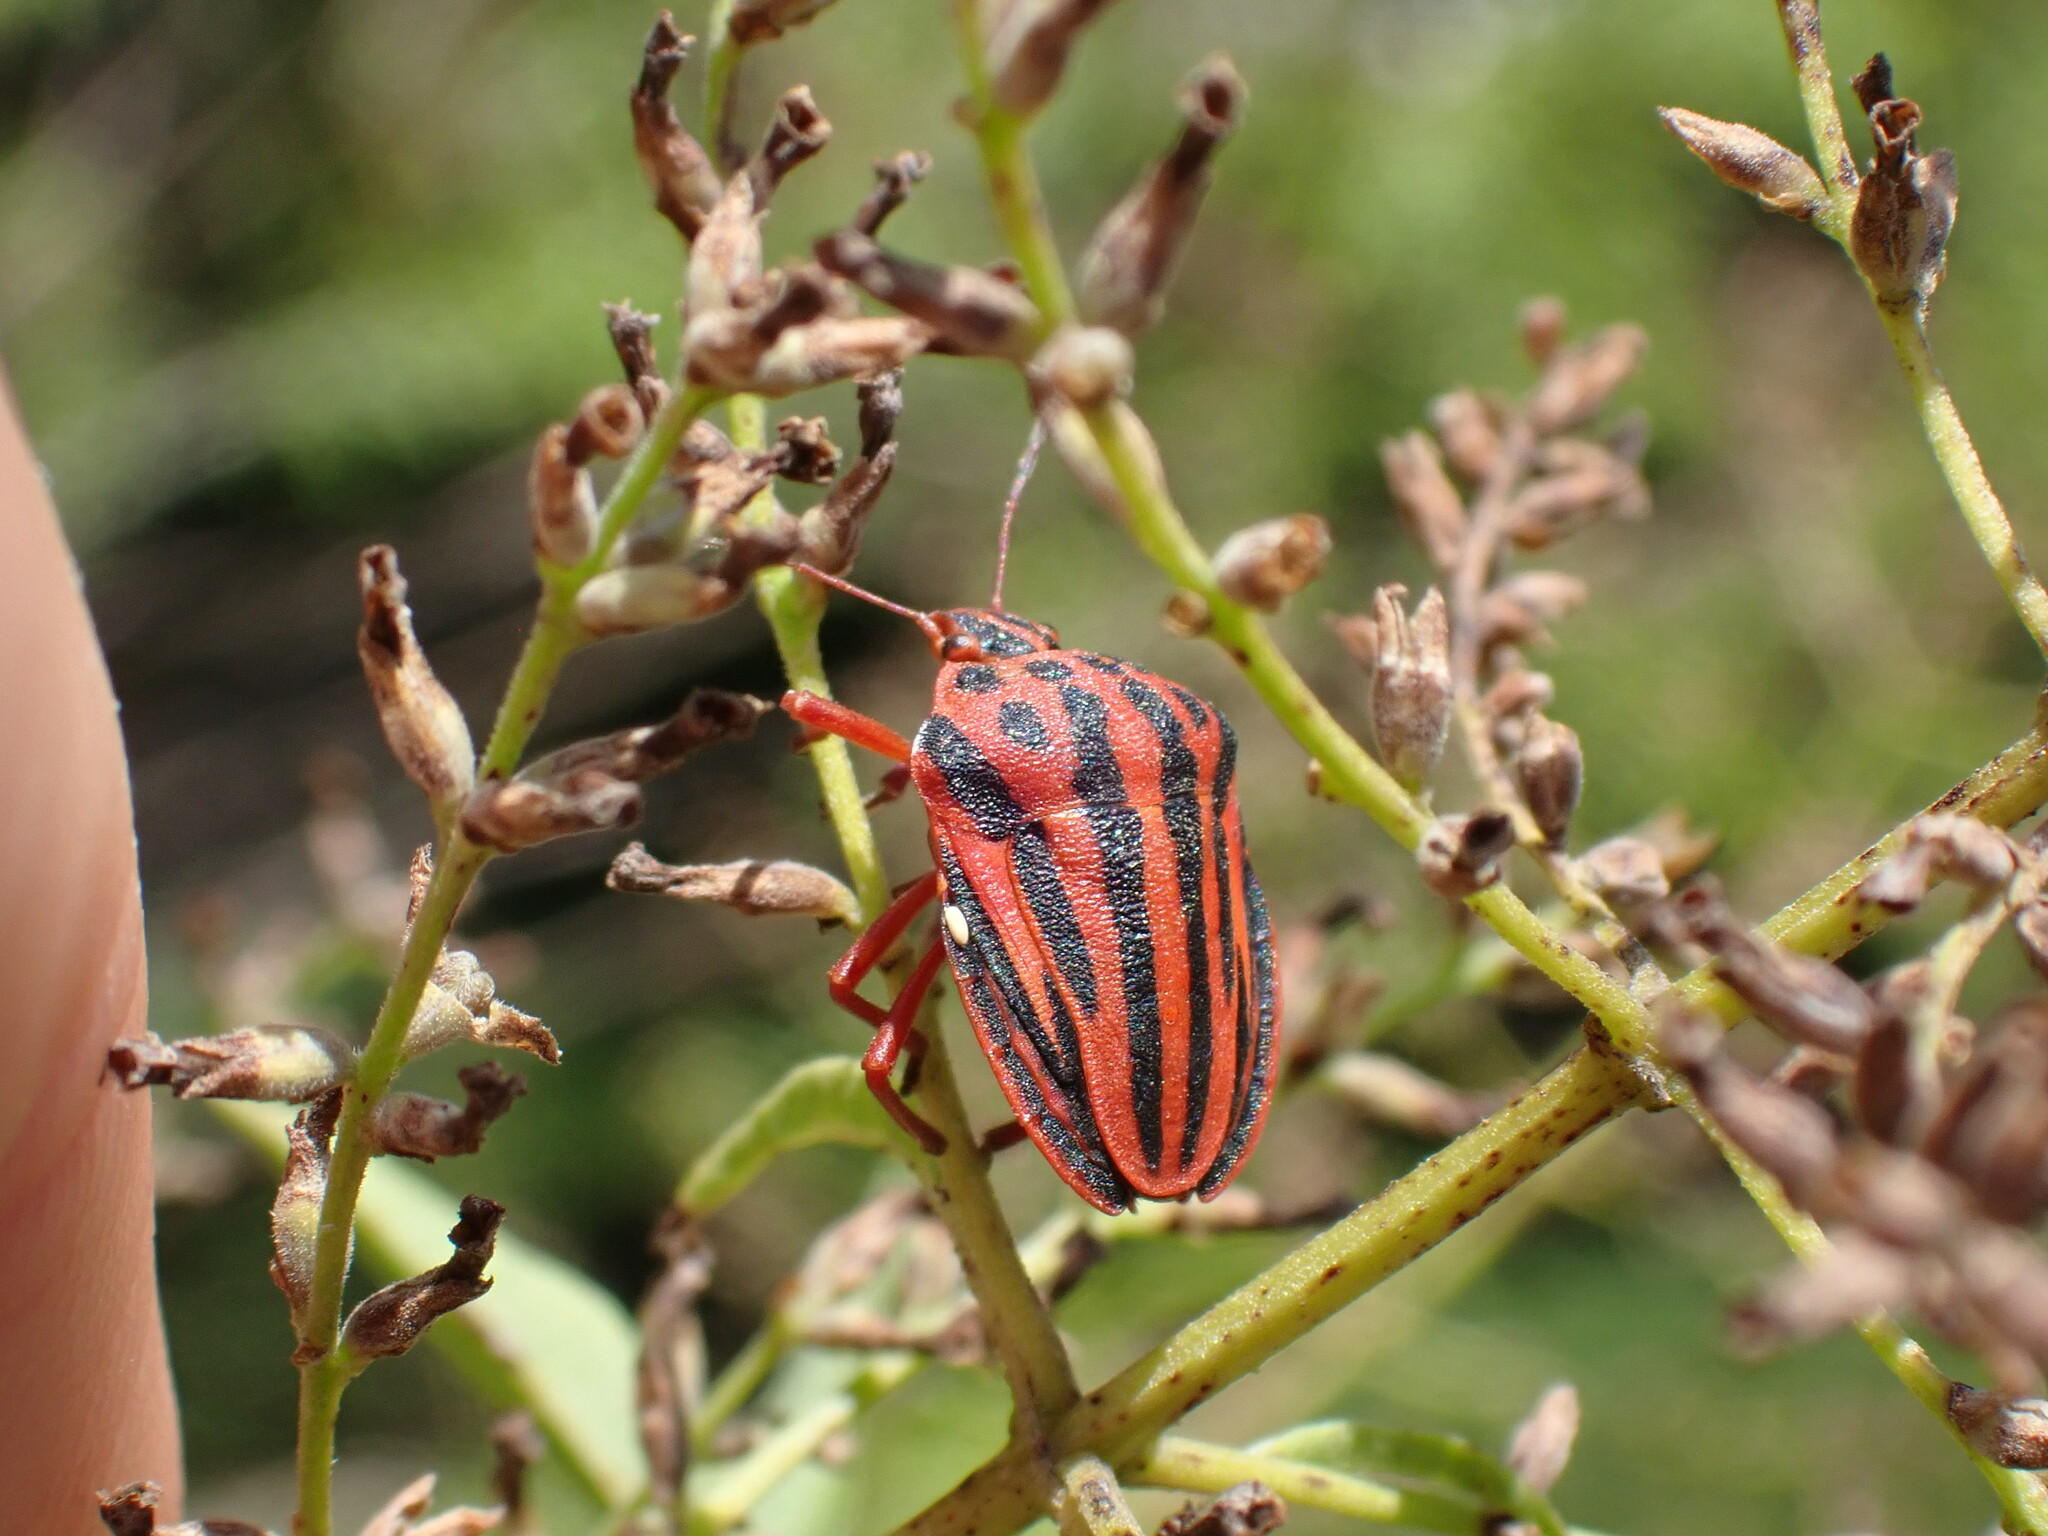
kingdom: Animalia
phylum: Arthropoda
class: Insecta
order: Hemiptera
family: Pentatomidae
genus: Graphosoma
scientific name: Graphosoma semipunctatum
